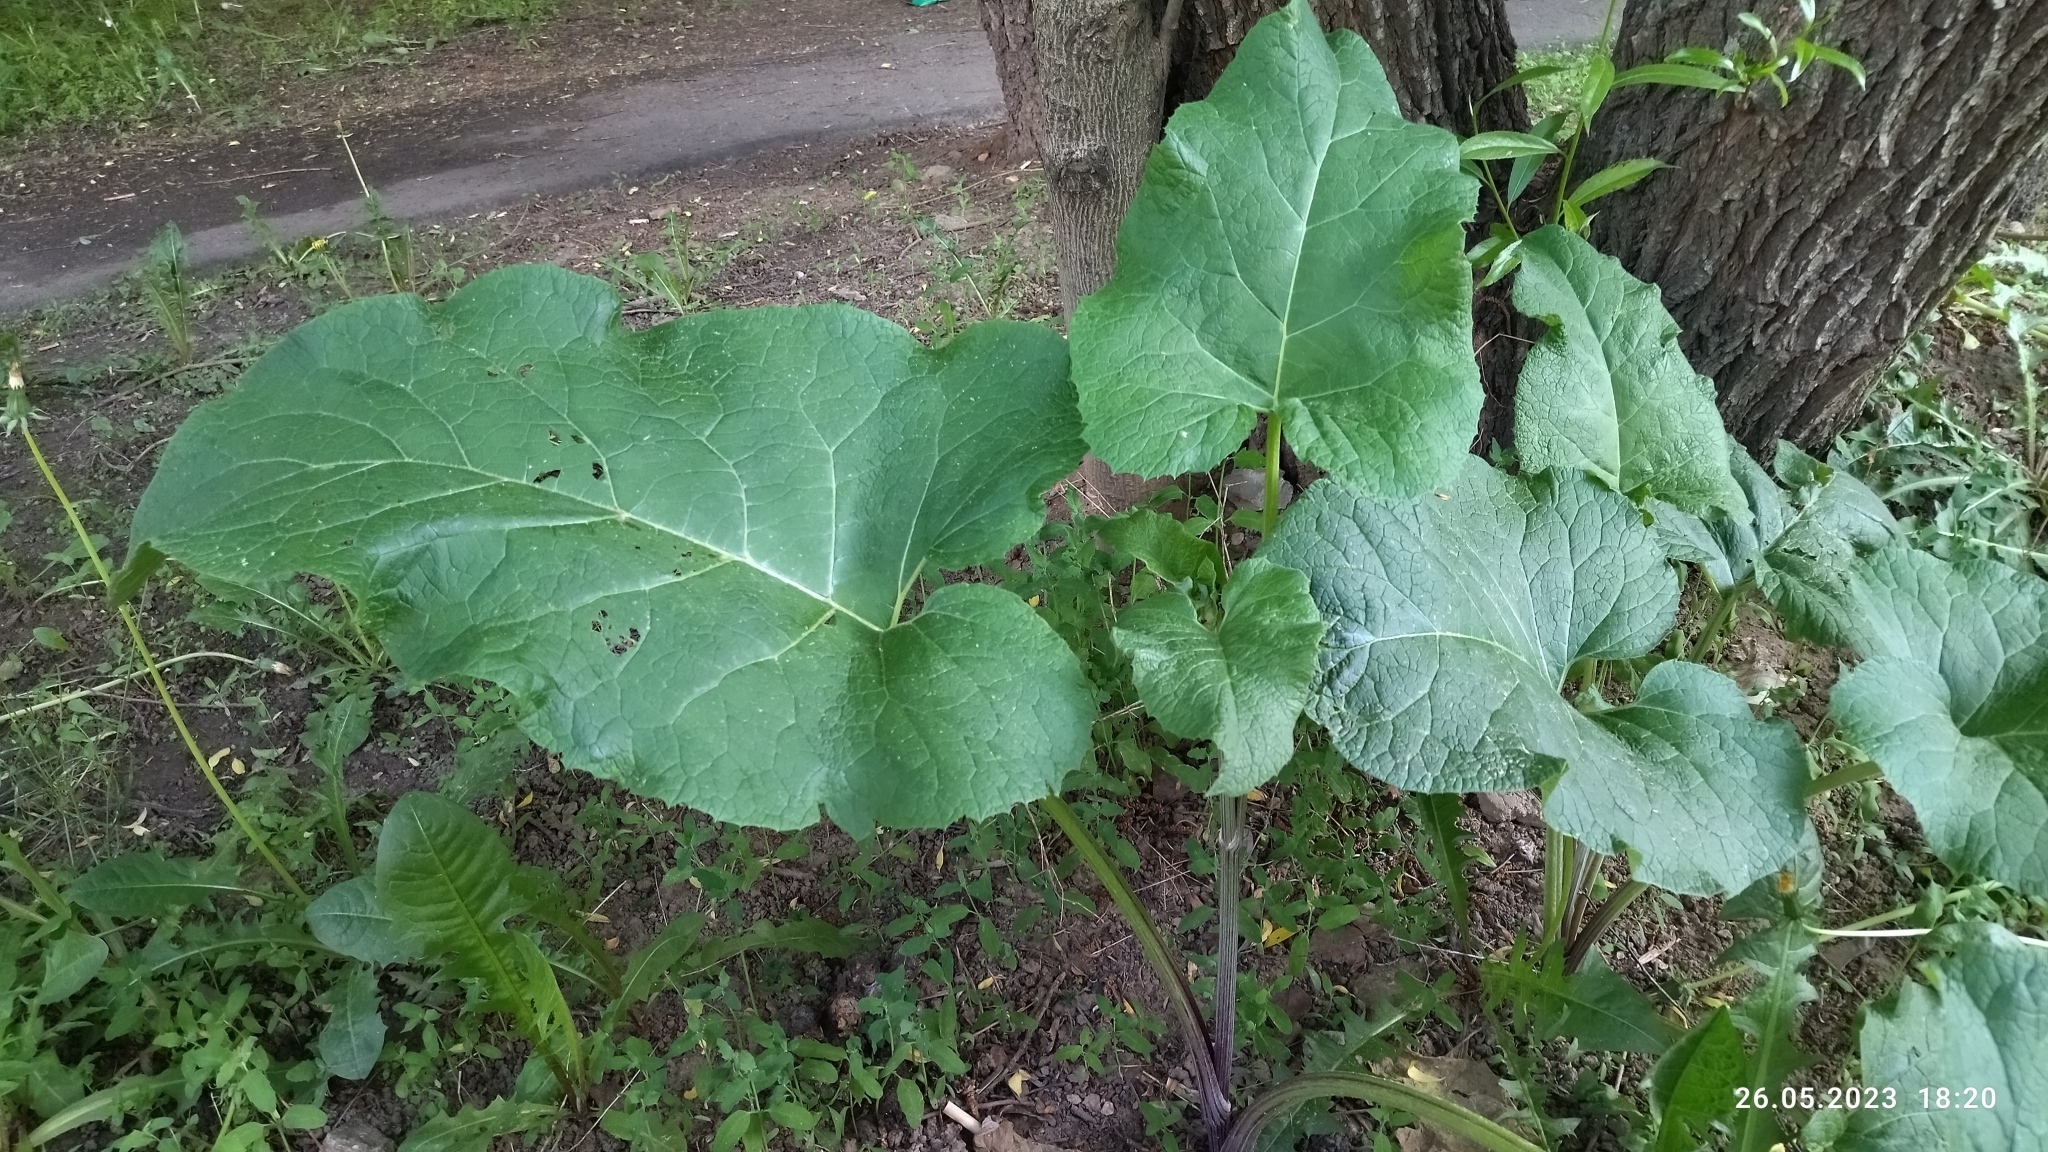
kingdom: Plantae
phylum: Tracheophyta
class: Magnoliopsida
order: Asterales
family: Asteraceae
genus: Arctium
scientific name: Arctium
